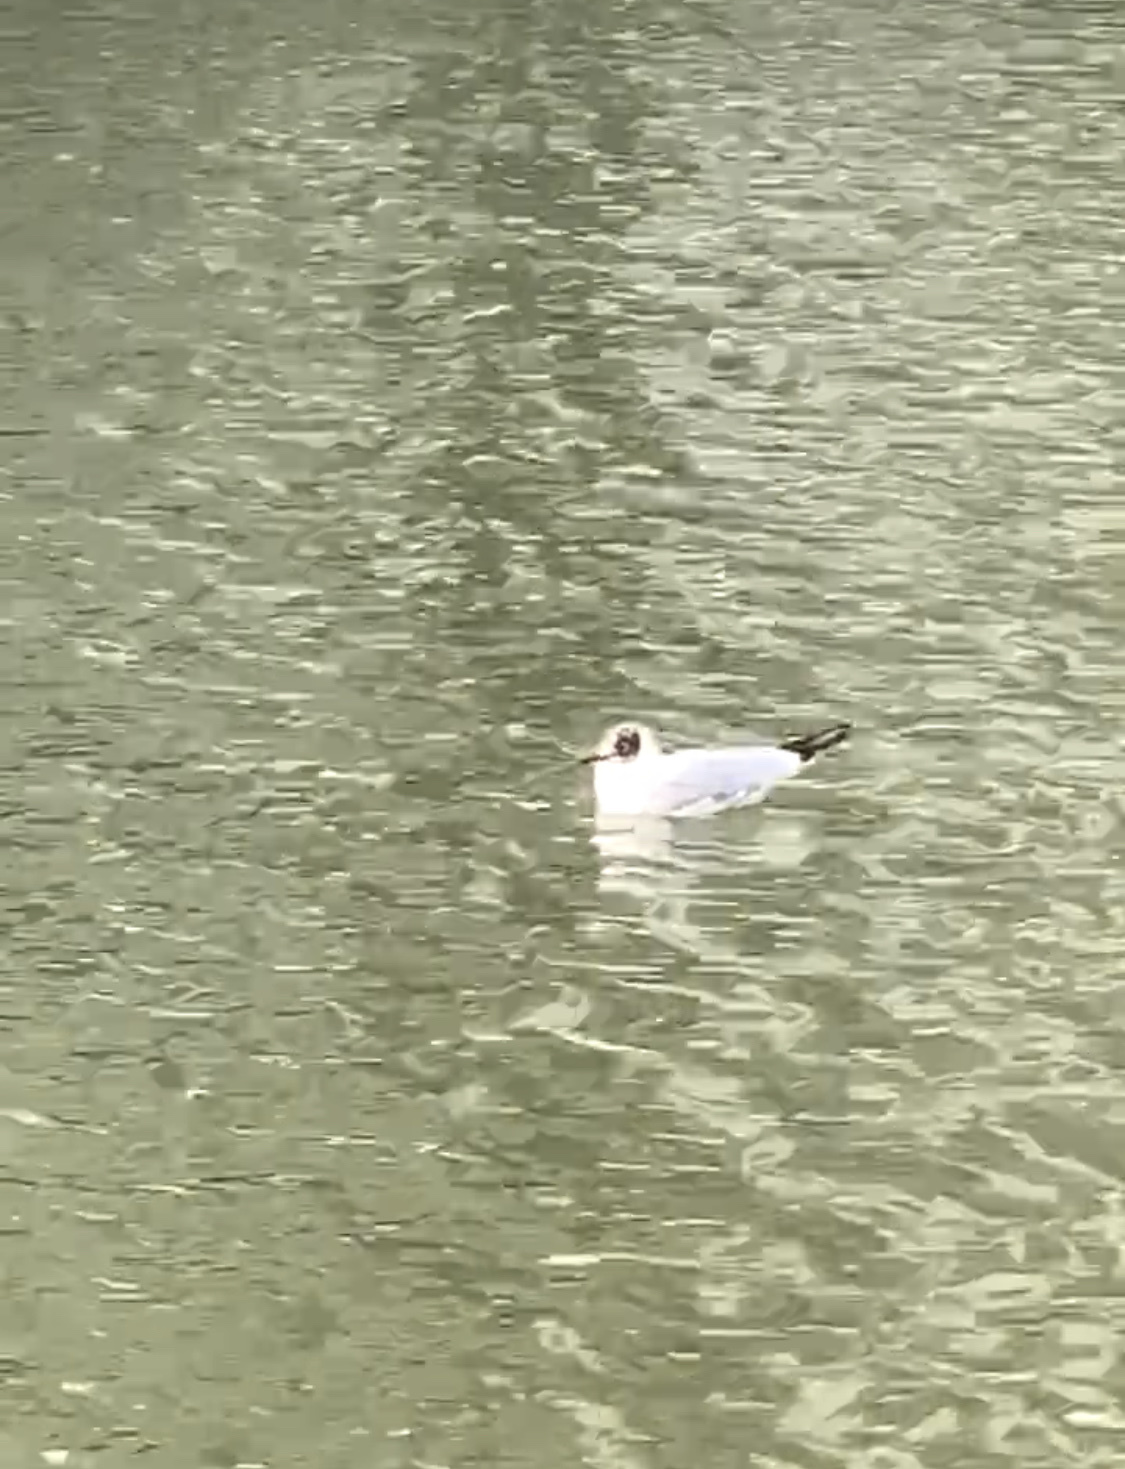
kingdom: Animalia
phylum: Chordata
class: Aves
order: Charadriiformes
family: Laridae
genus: Chroicocephalus
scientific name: Chroicocephalus ridibundus
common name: Black-headed gull
